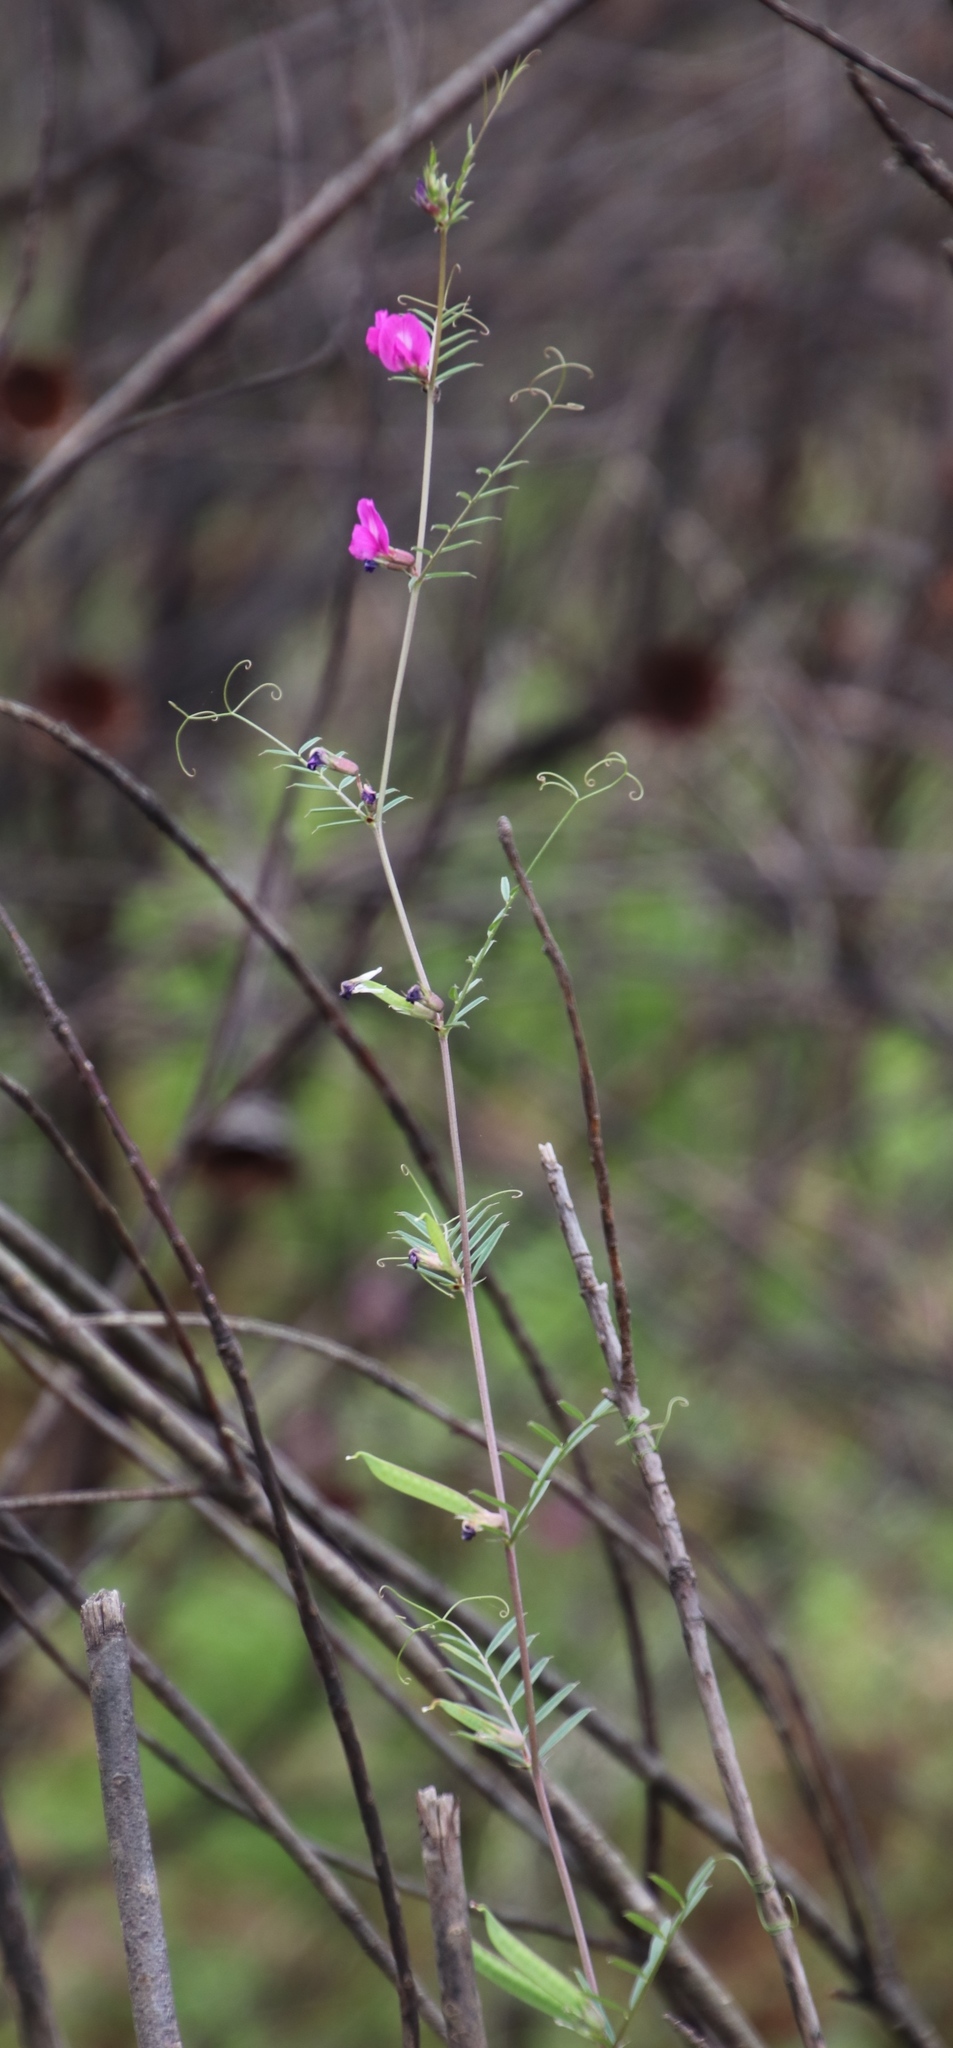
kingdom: Plantae
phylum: Tracheophyta
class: Magnoliopsida
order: Fabales
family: Fabaceae
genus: Vicia
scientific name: Vicia sativa
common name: Garden vetch
